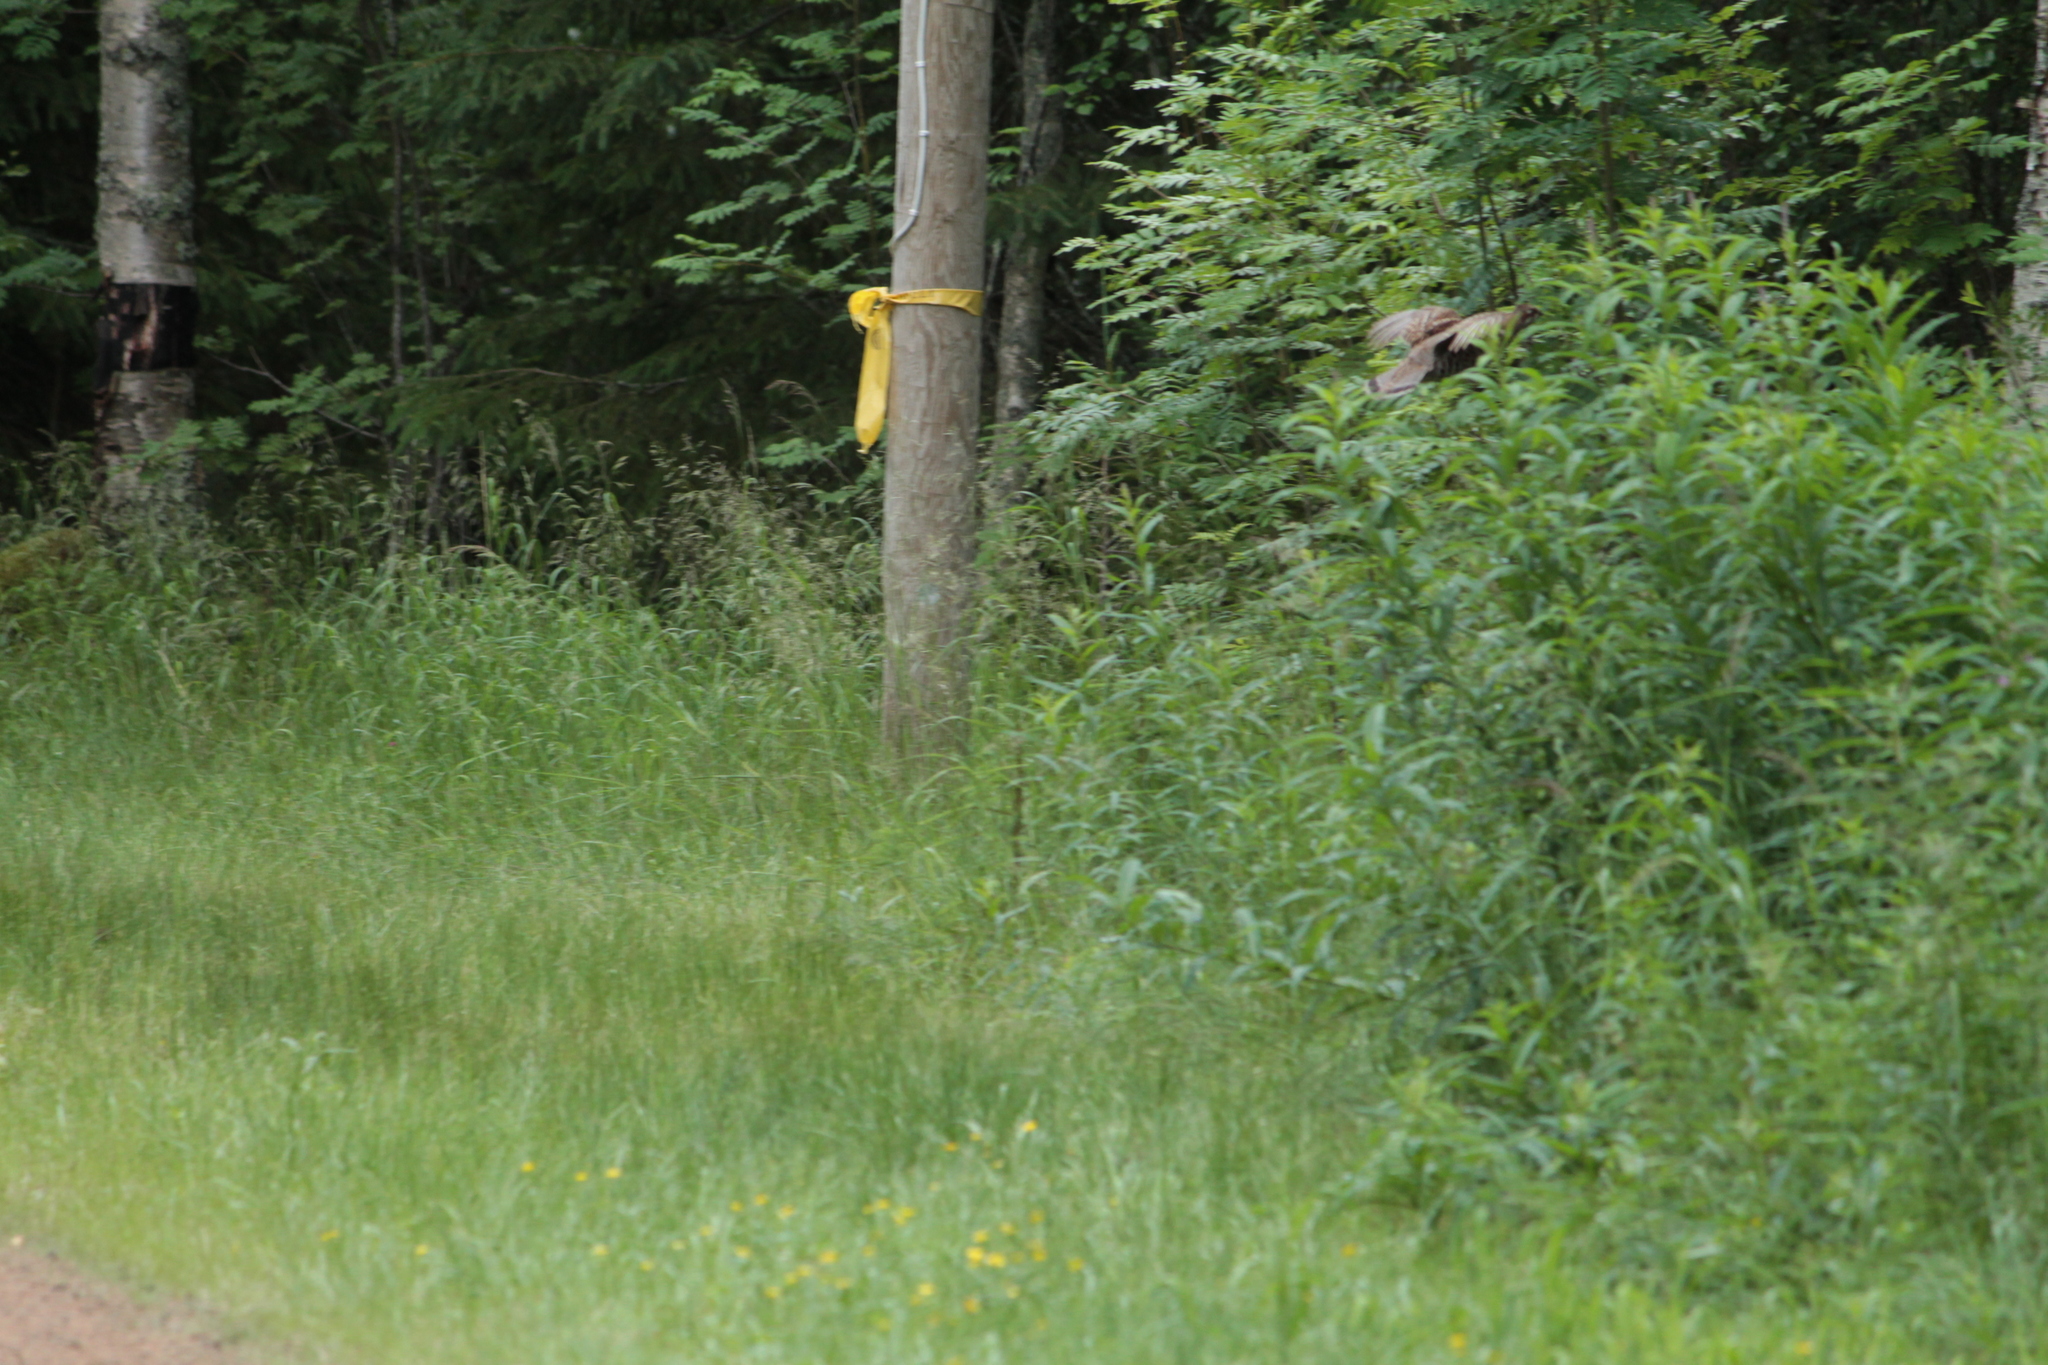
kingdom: Animalia
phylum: Chordata
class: Aves
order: Galliformes
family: Phasianidae
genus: Tetrastes
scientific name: Tetrastes bonasia
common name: Hazel grouse
